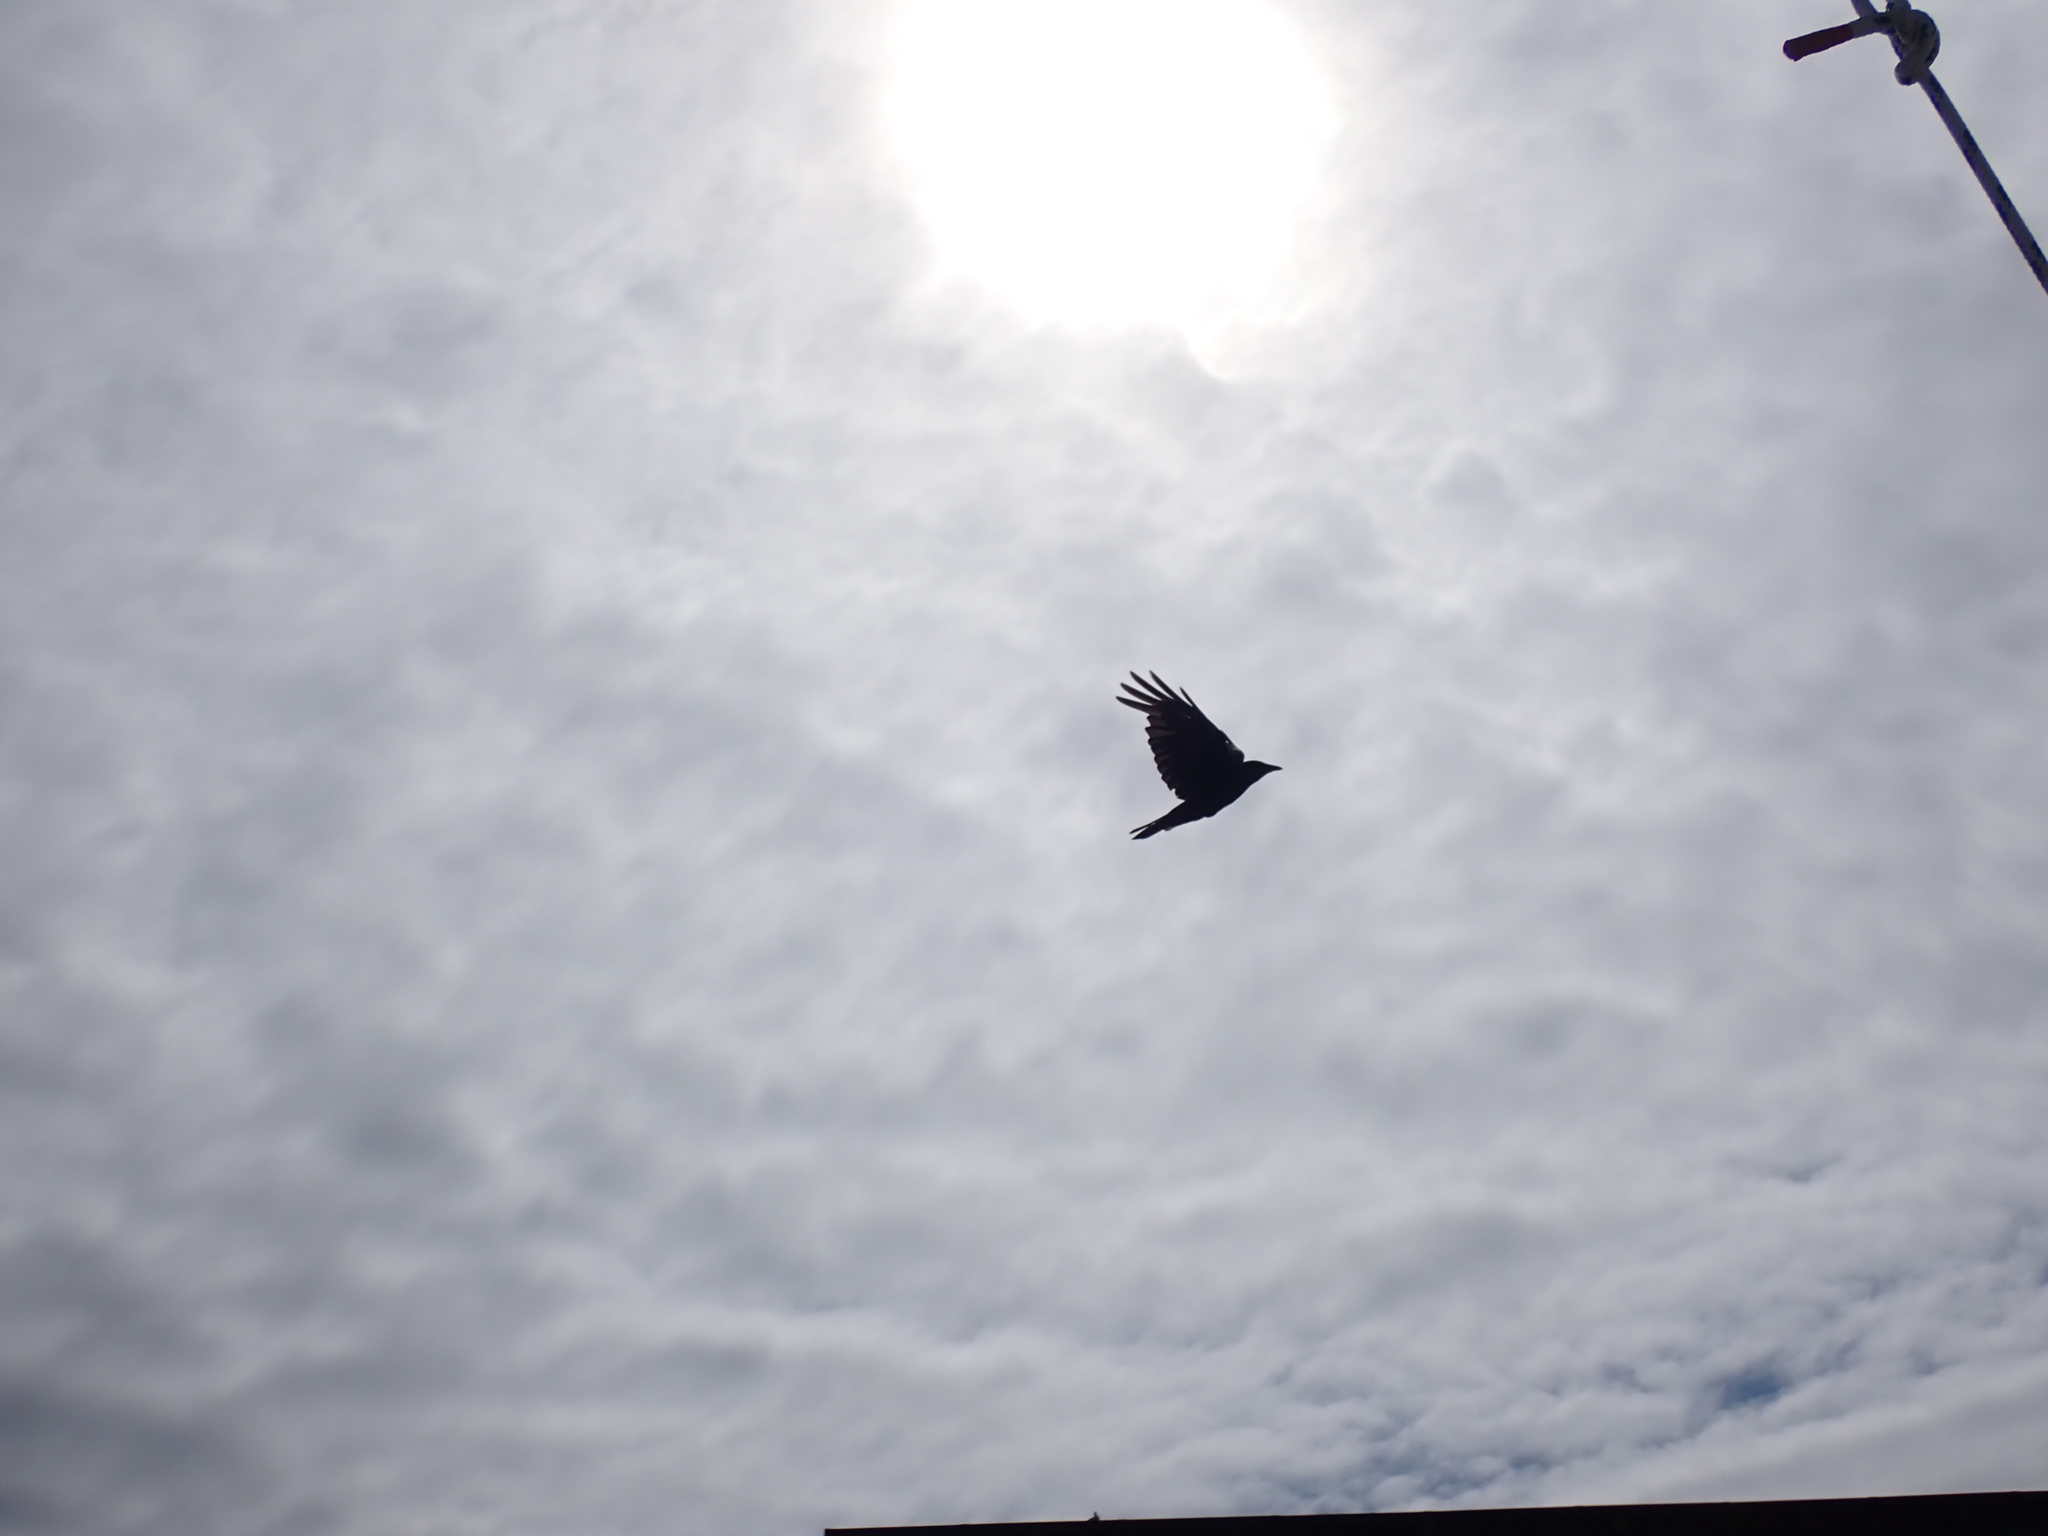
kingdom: Animalia
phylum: Chordata
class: Aves
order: Passeriformes
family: Corvidae
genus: Corvus
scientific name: Corvus brachyrhynchos
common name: American crow
